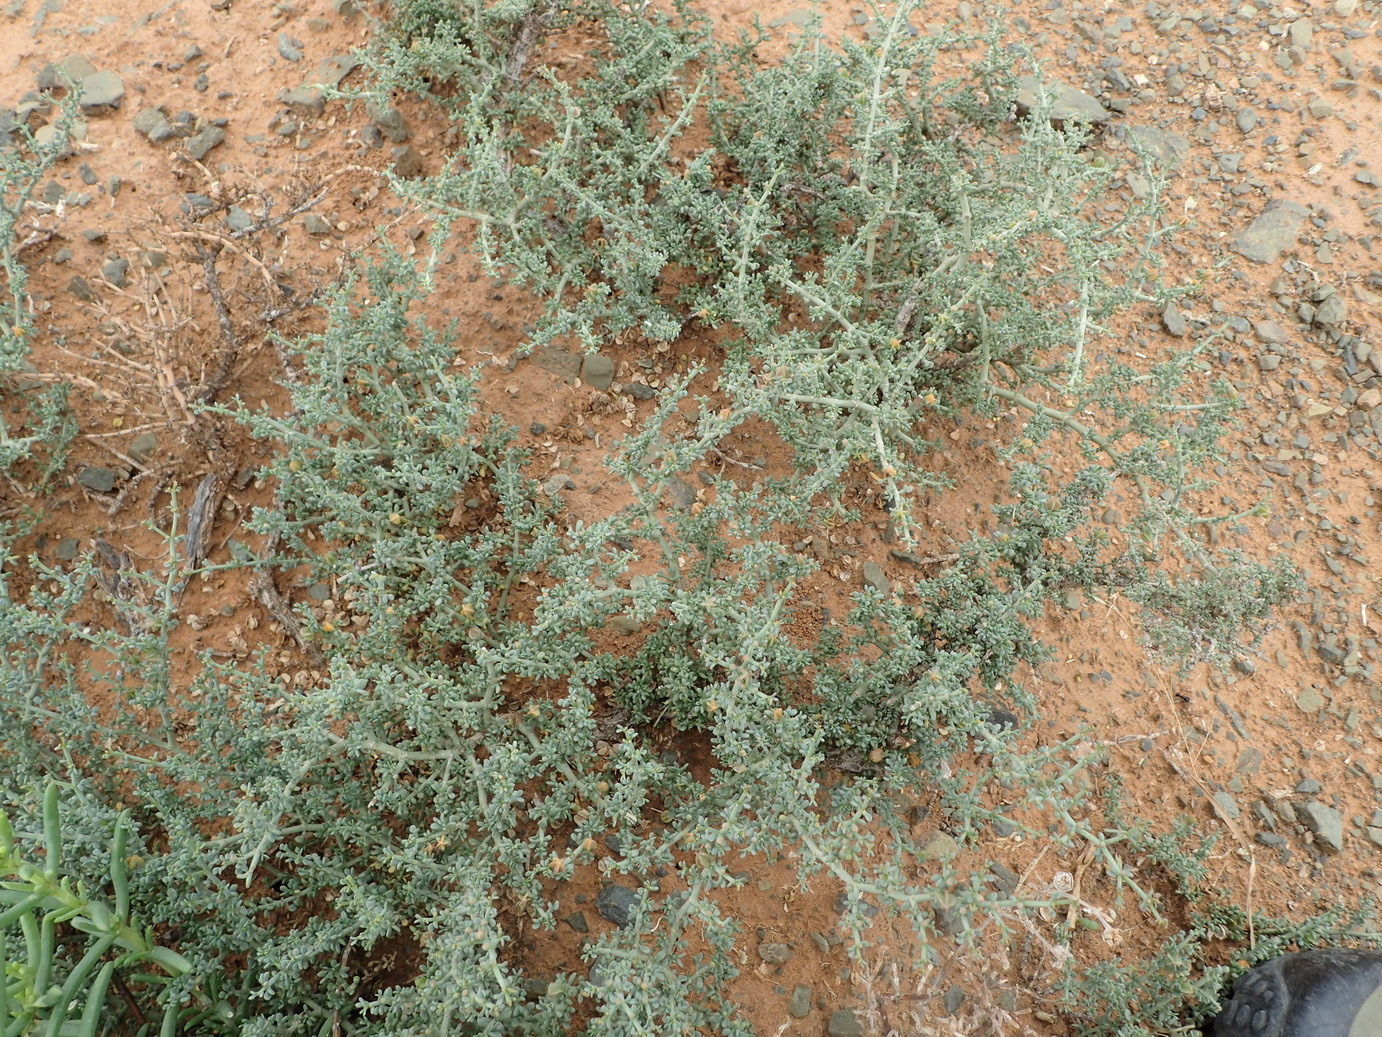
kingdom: Plantae
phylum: Tracheophyta
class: Magnoliopsida
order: Zygophyllales
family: Zygophyllaceae
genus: Tetraena
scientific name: Tetraena chrysopteros
